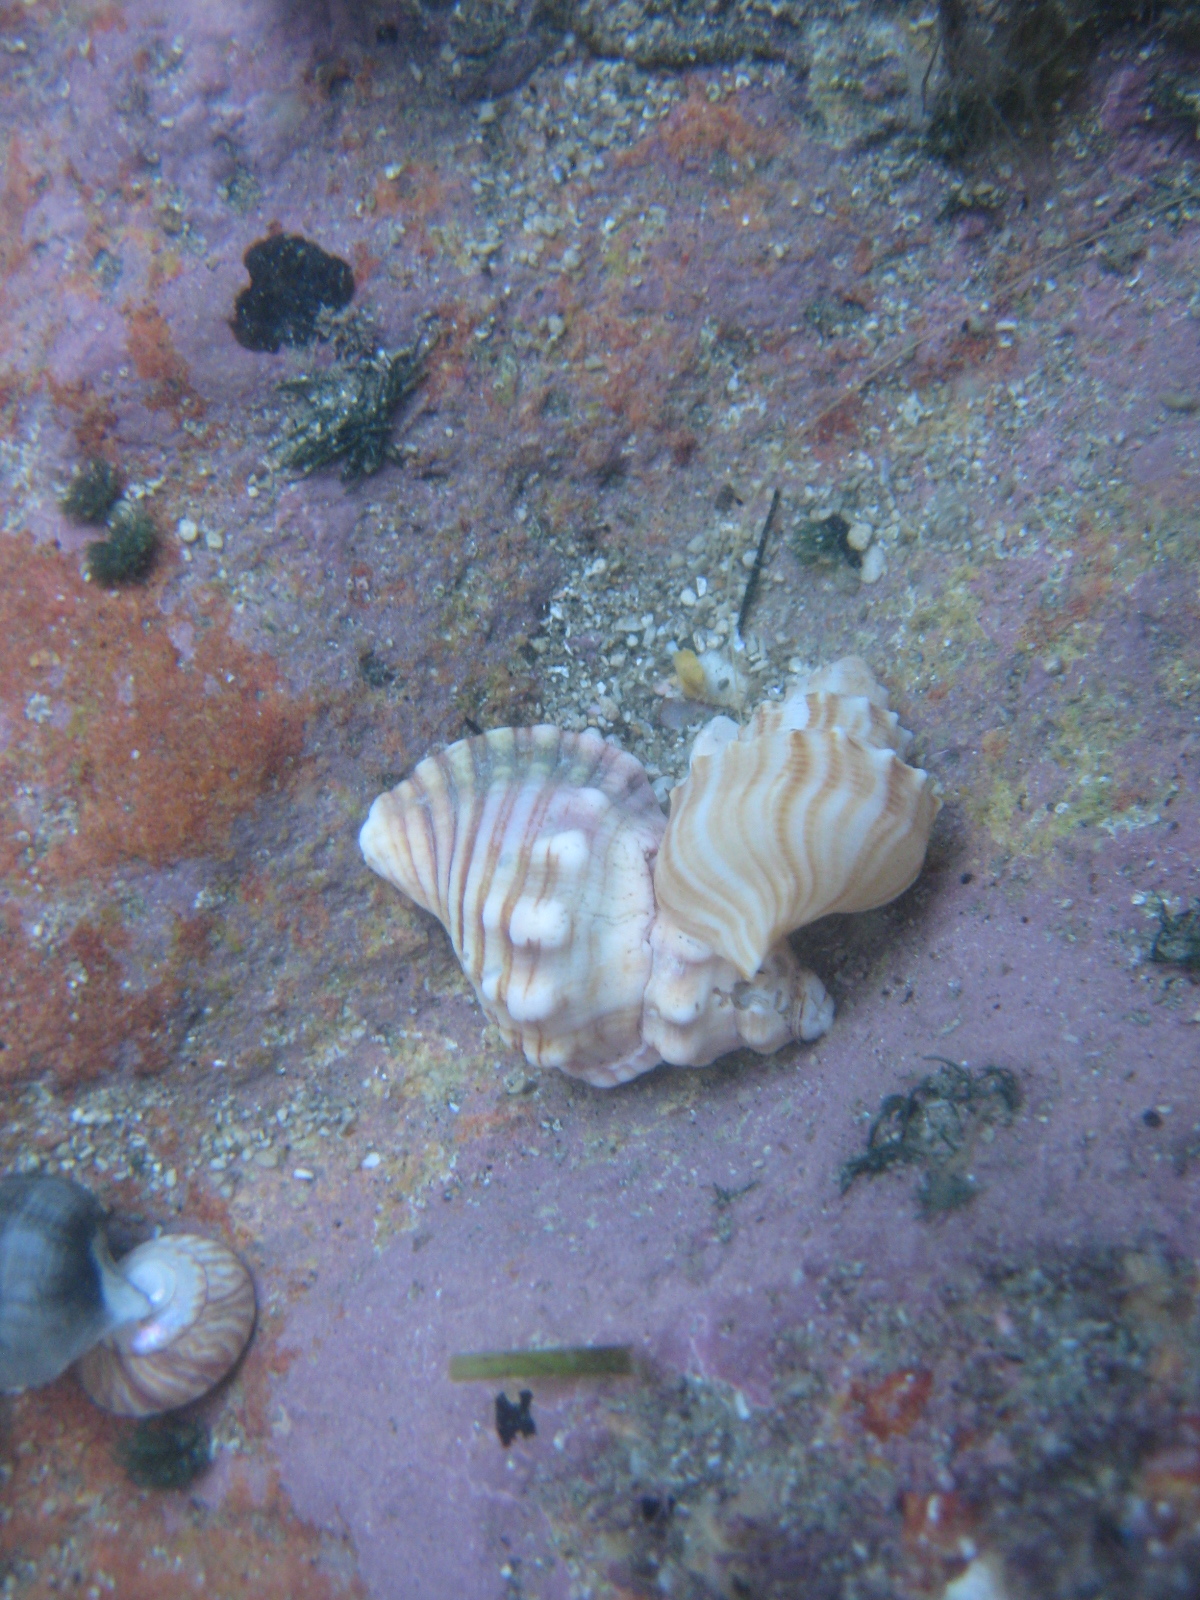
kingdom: Animalia
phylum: Mollusca
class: Gastropoda
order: Littorinimorpha
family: Cymatiidae
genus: Cabestana
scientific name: Cabestana spengleri
